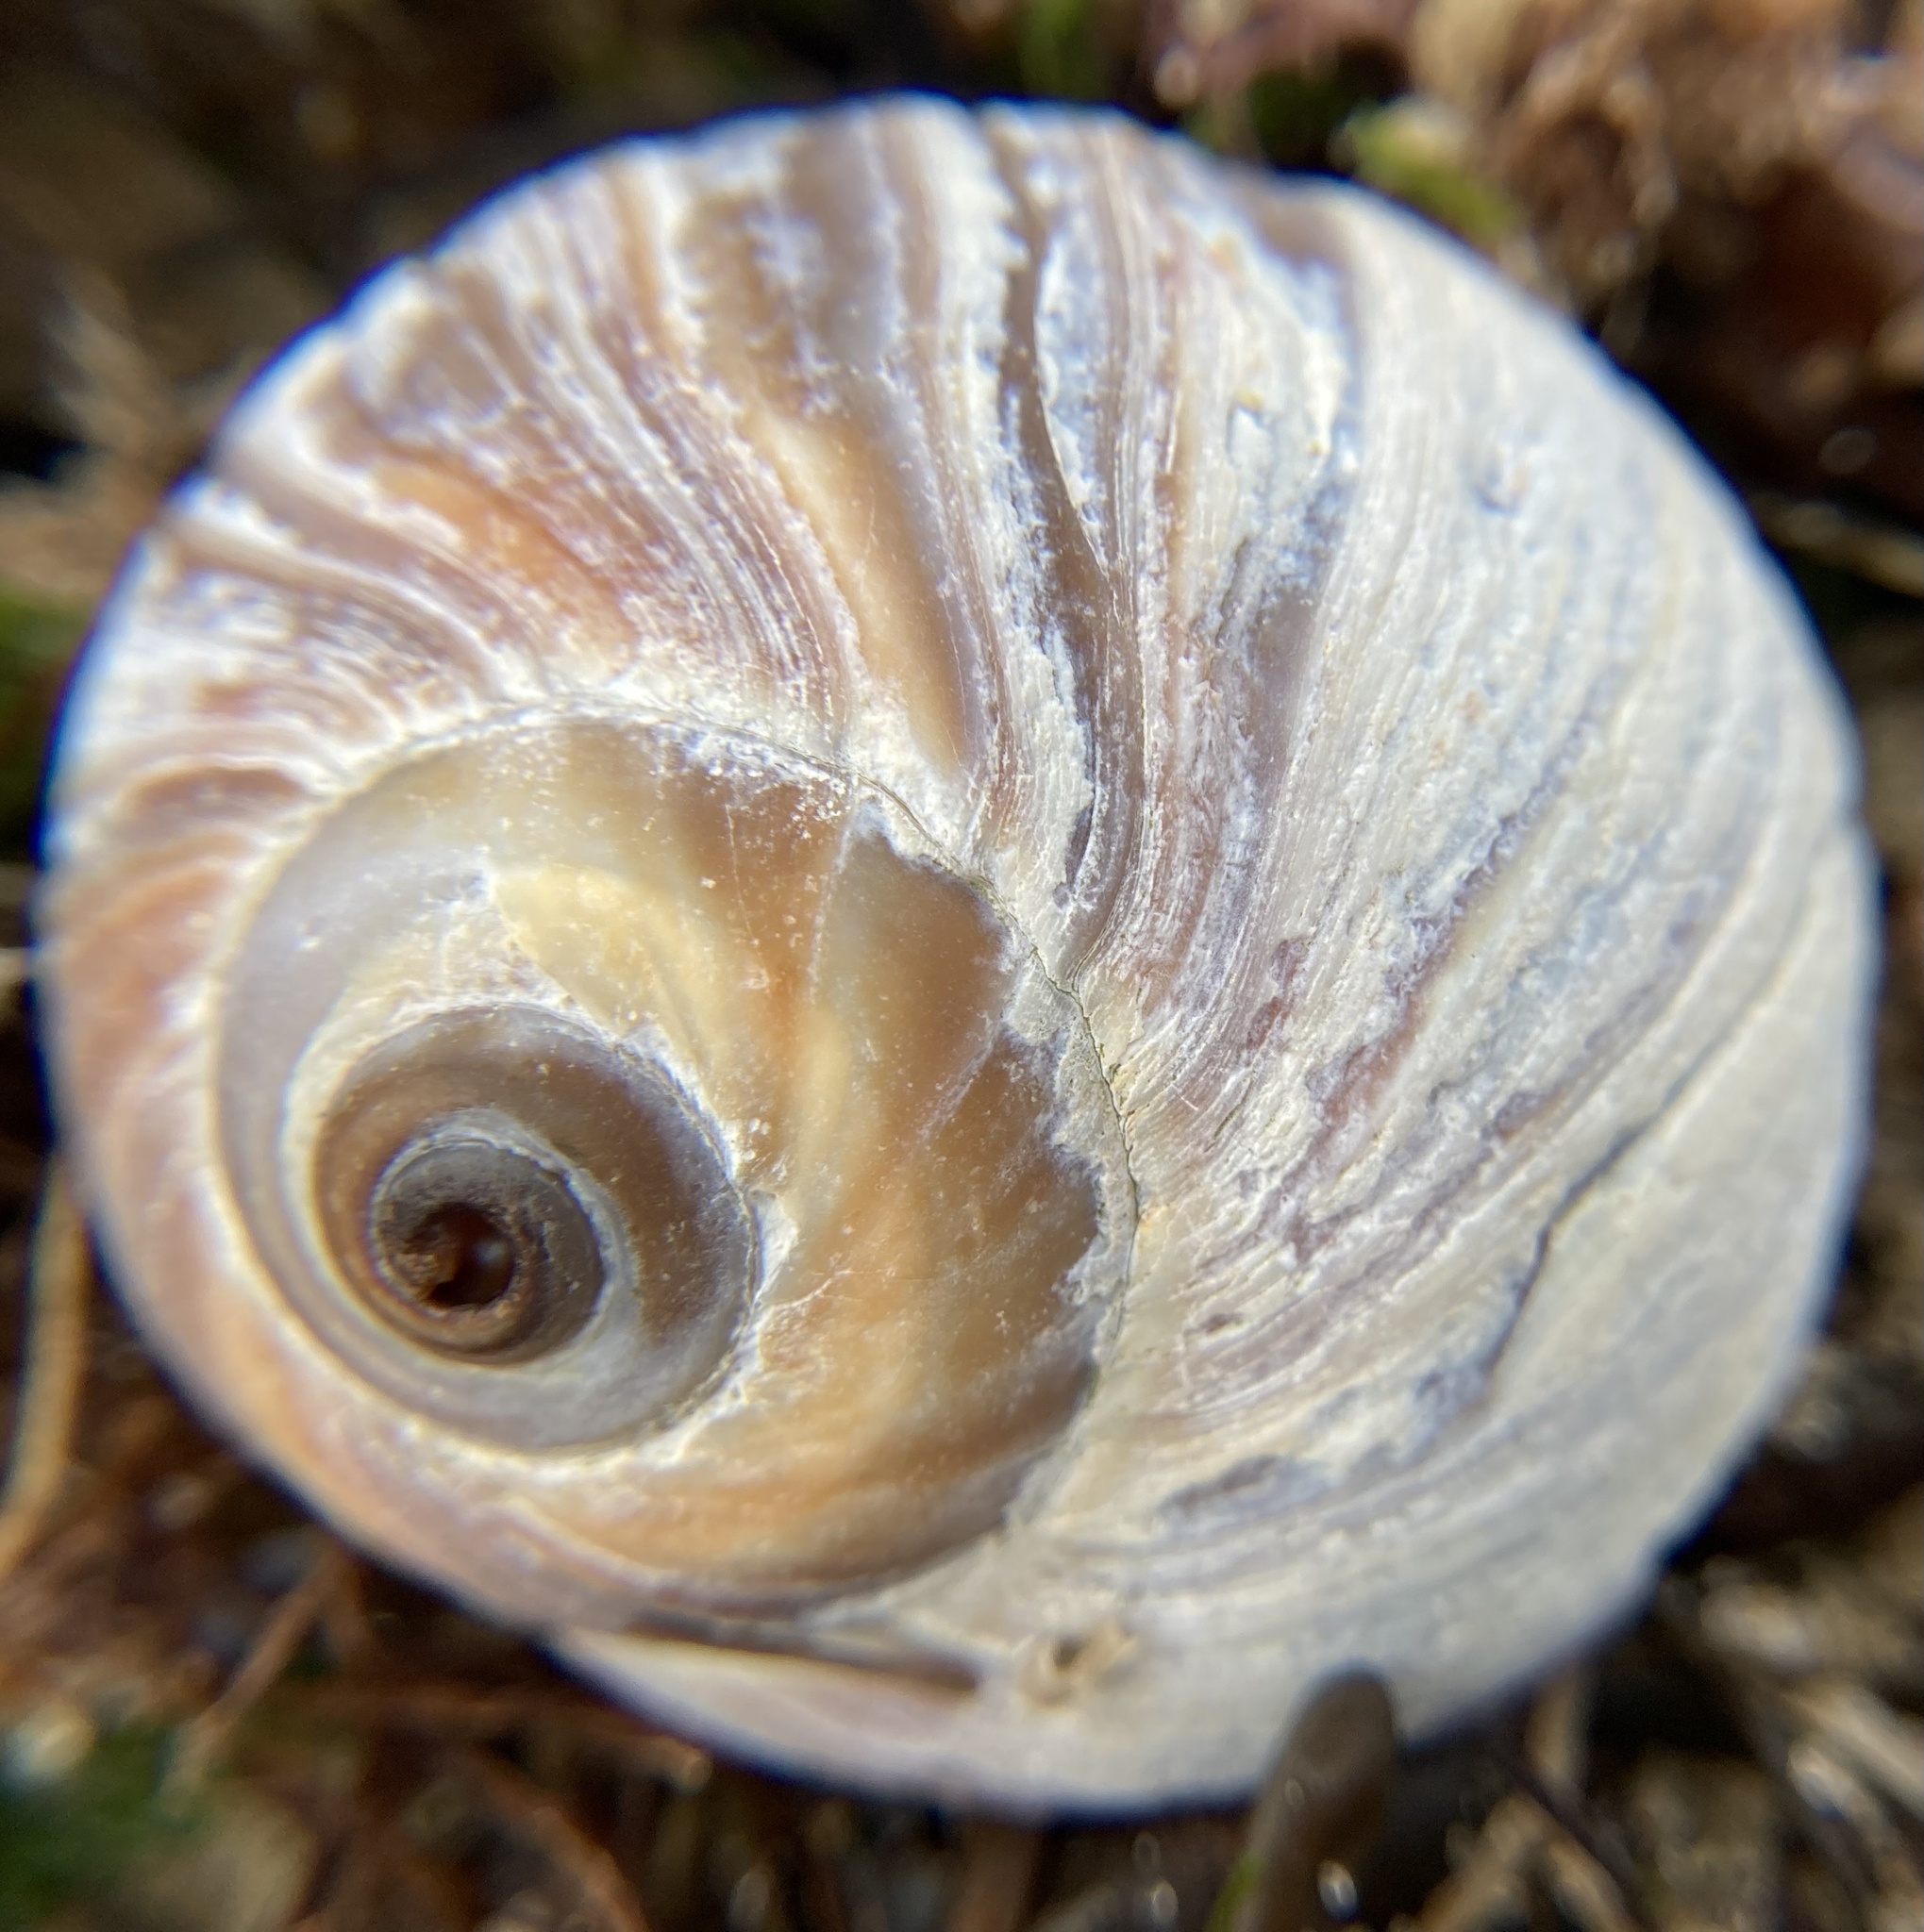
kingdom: Animalia
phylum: Mollusca
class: Gastropoda
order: Littorinimorpha
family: Naticidae
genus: Euspira
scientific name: Euspira heros
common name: Common northern moonsnail
